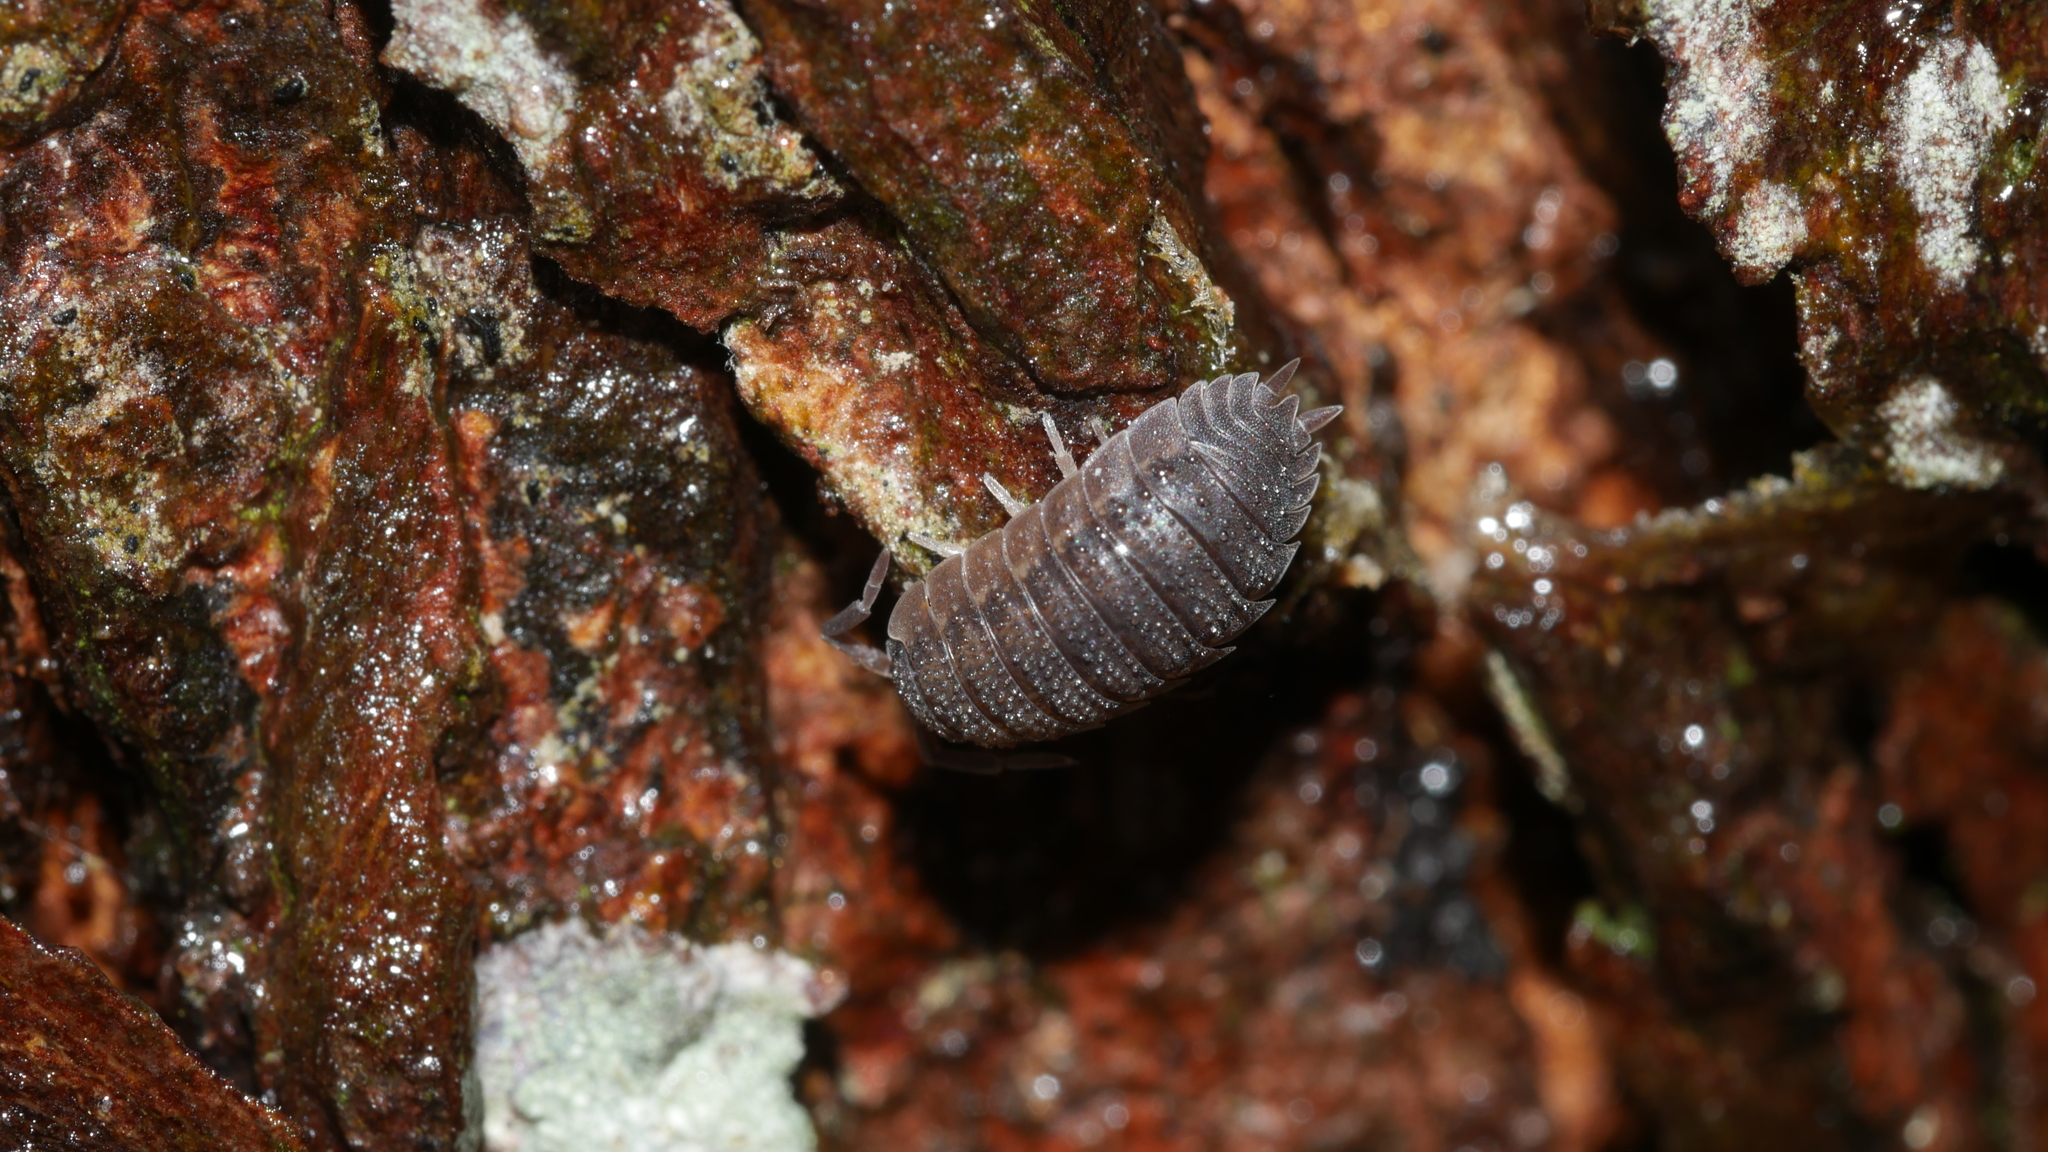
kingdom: Animalia
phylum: Arthropoda
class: Malacostraca
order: Isopoda
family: Porcellionidae
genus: Porcellio
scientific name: Porcellio scaber
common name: Common rough woodlouse
